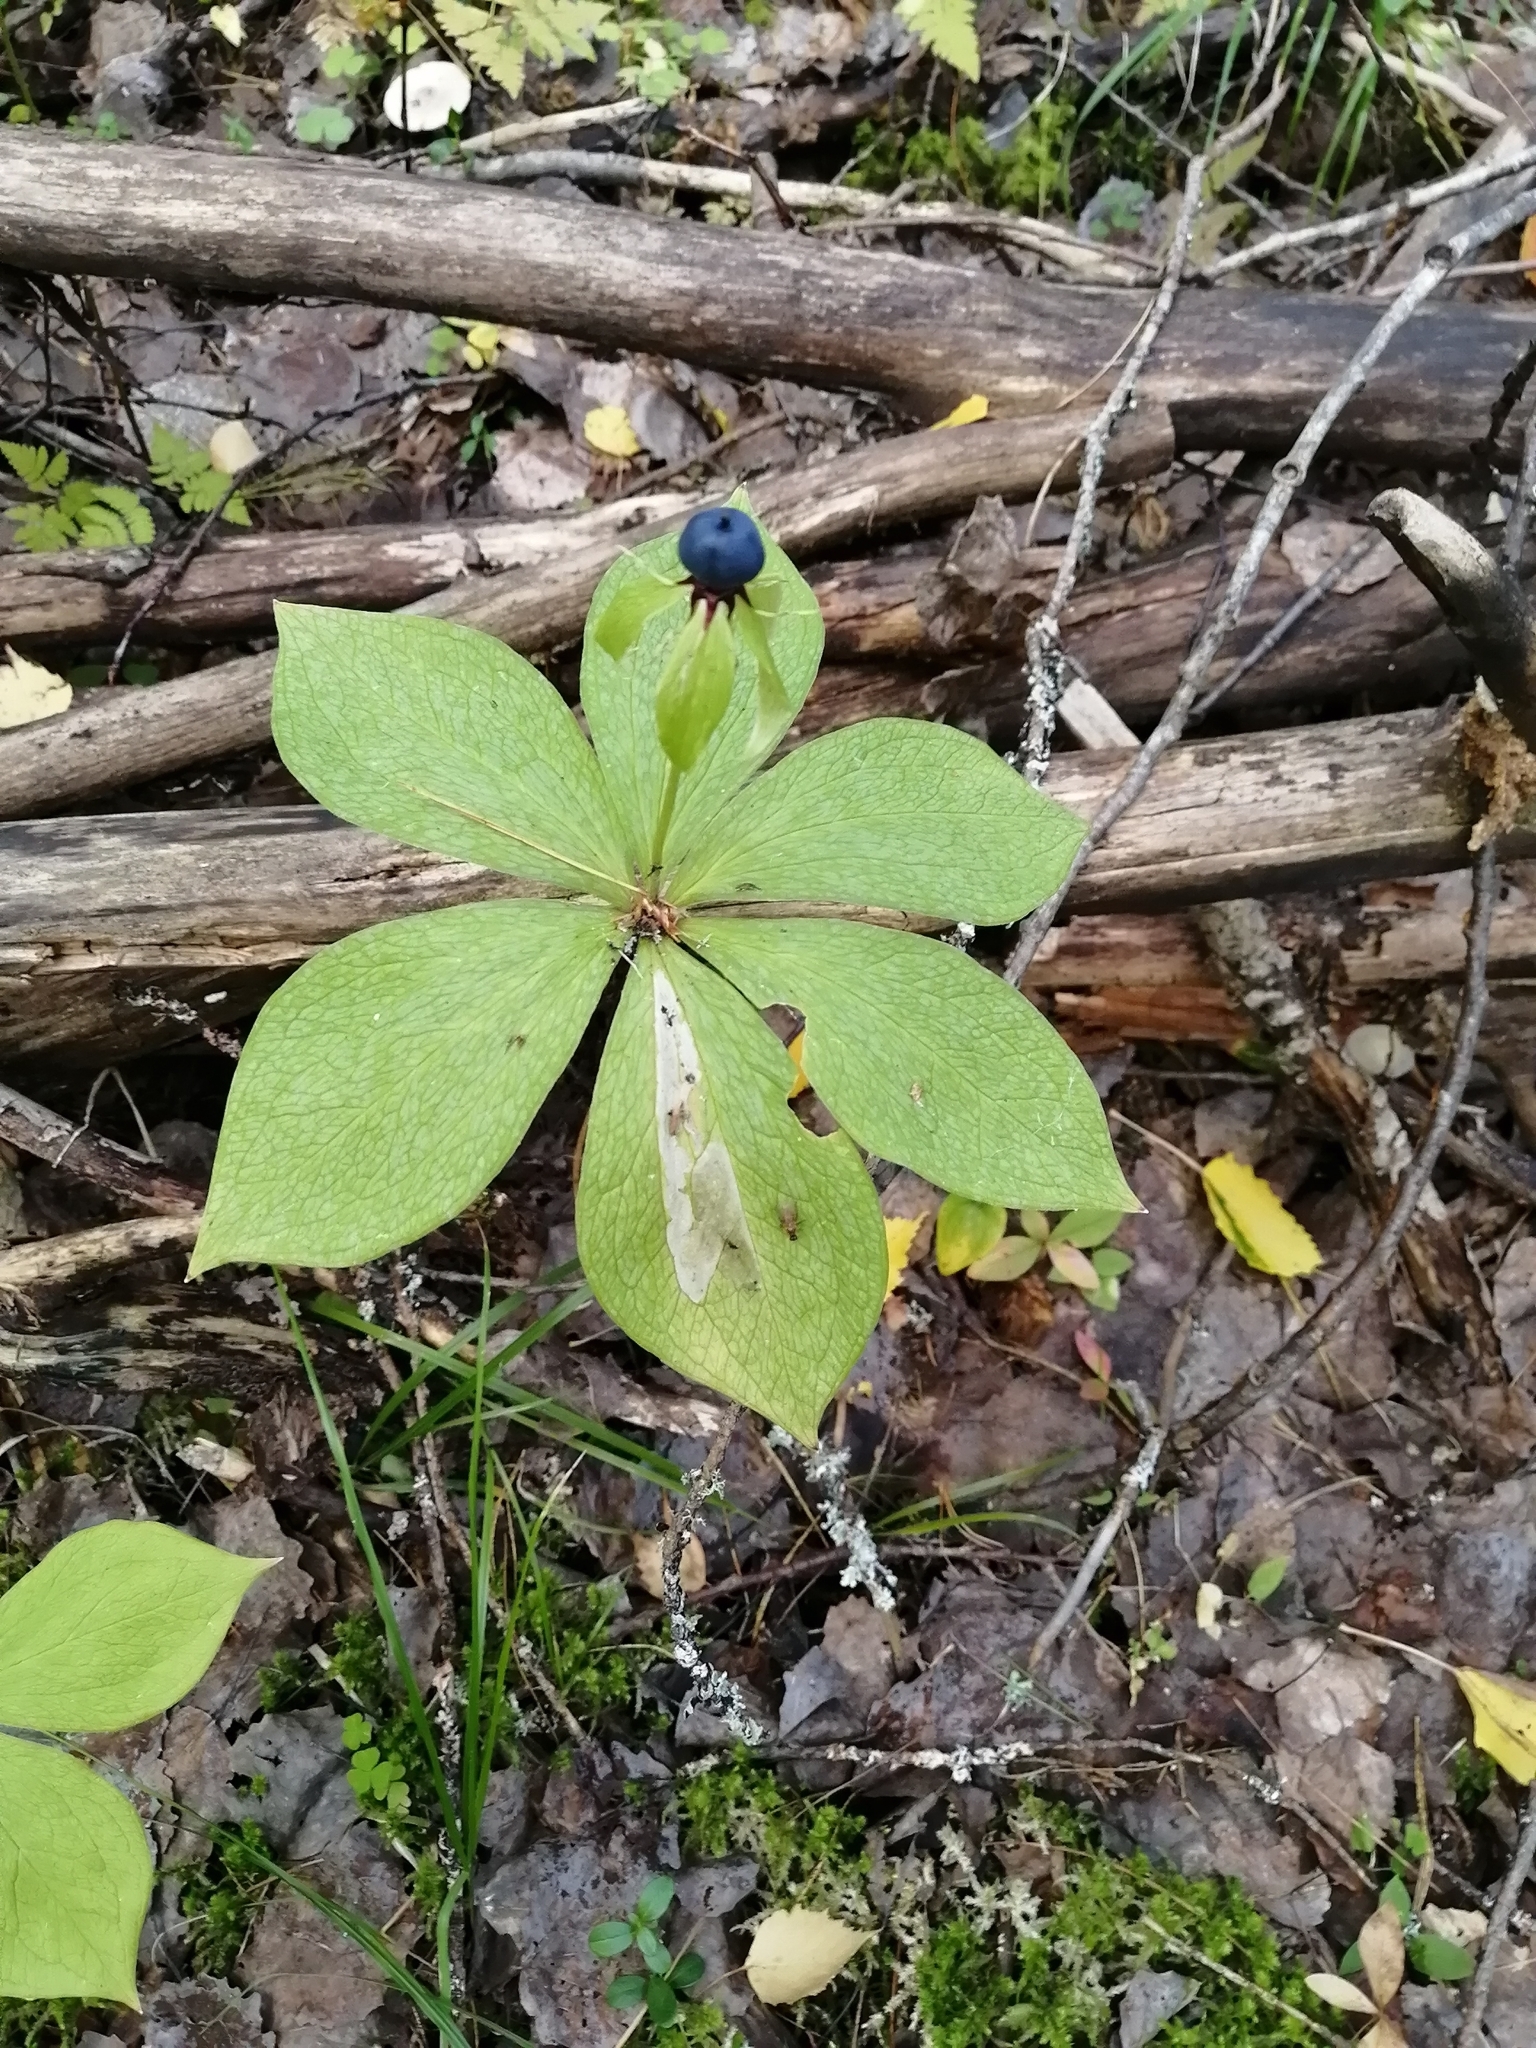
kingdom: Plantae
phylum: Tracheophyta
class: Liliopsida
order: Liliales
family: Melanthiaceae
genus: Paris
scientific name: Paris verticillata
